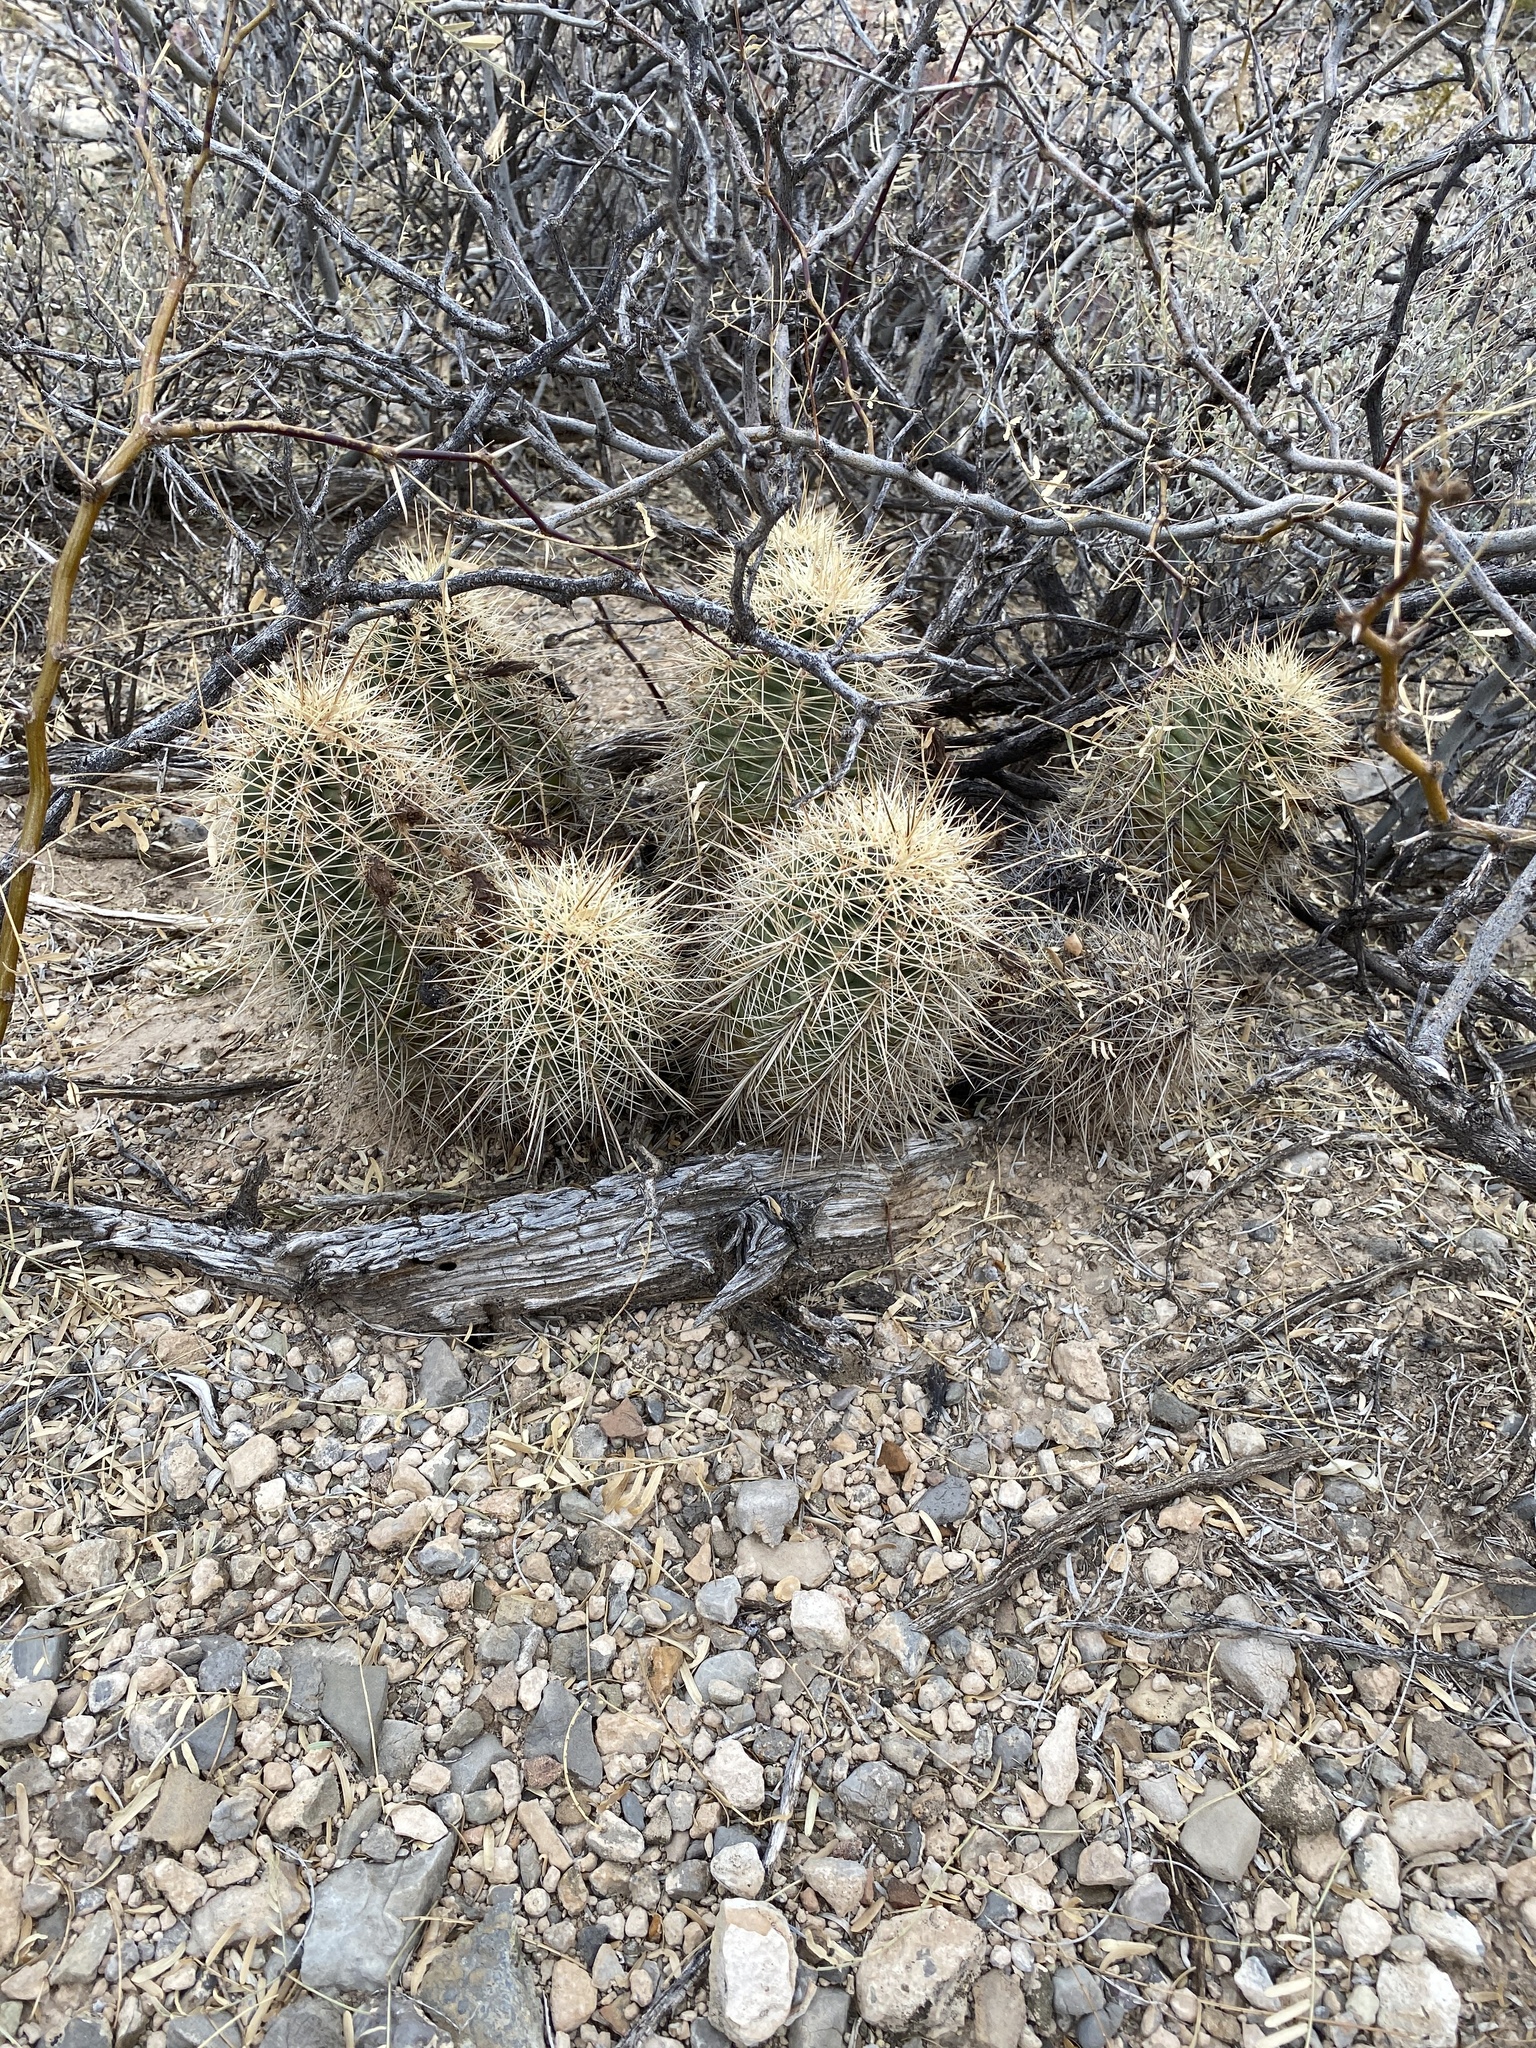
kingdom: Plantae
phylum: Tracheophyta
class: Magnoliopsida
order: Caryophyllales
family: Cactaceae
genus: Echinocereus
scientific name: Echinocereus coccineus
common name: Scarlet hedgehog cactus
